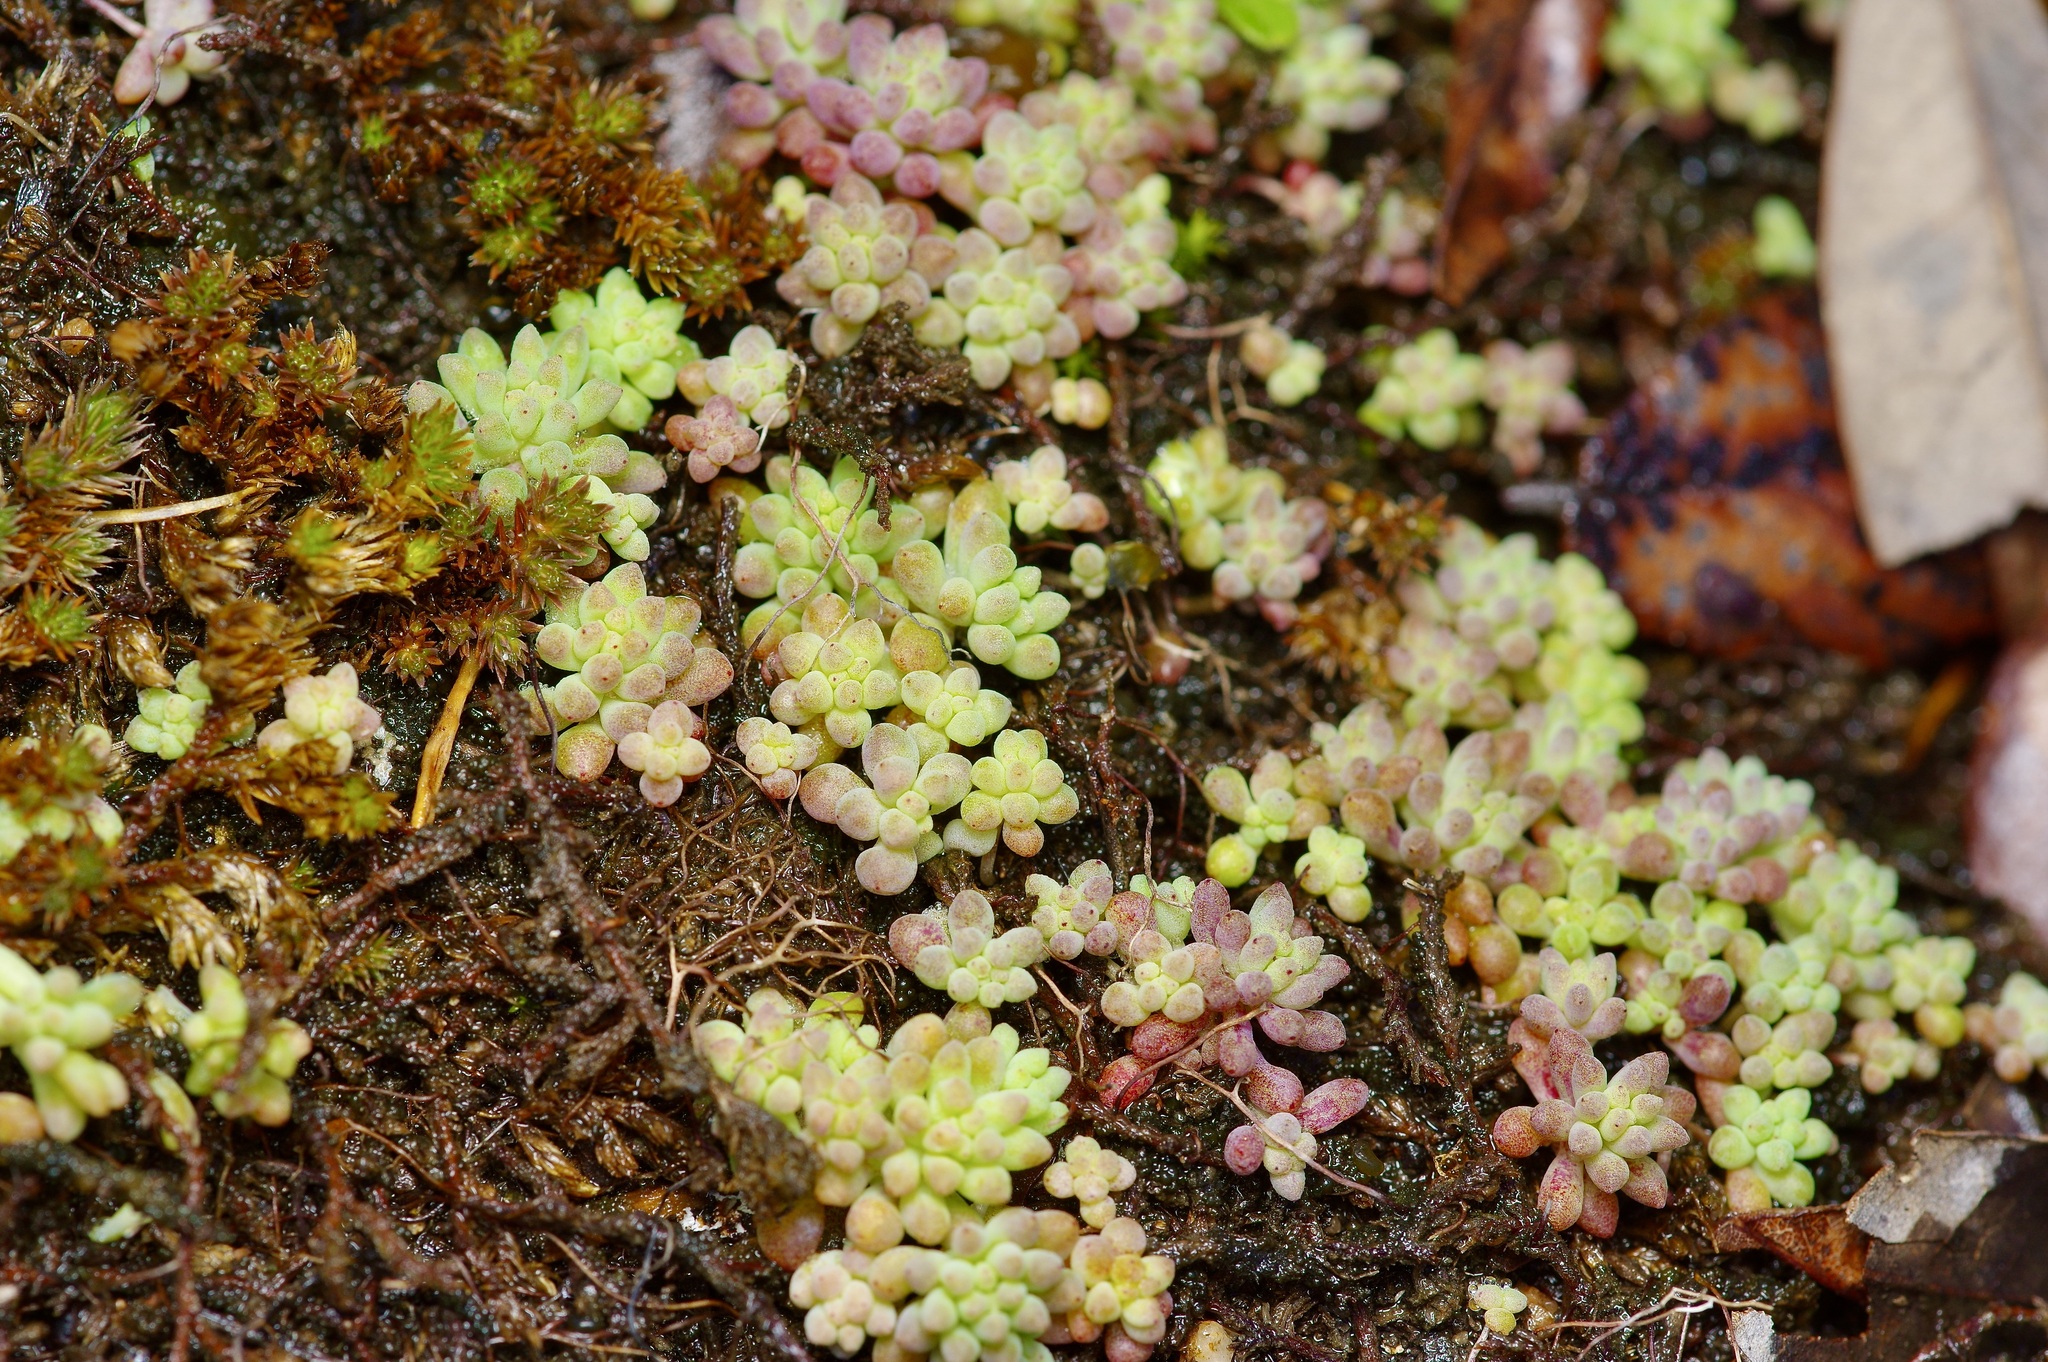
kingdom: Plantae
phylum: Tracheophyta
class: Magnoliopsida
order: Saxifragales
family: Crassulaceae
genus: Sedum
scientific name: Sedum nuttallii
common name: Yellow stonecrop
